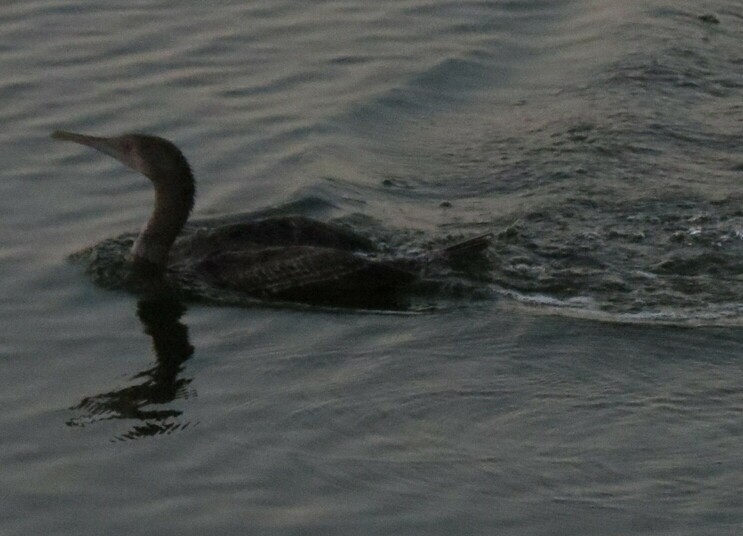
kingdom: Animalia
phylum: Chordata
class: Aves
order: Suliformes
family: Phalacrocoracidae
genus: Phalacrocorax
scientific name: Phalacrocorax nigrogularis
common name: Socotra cormorant
